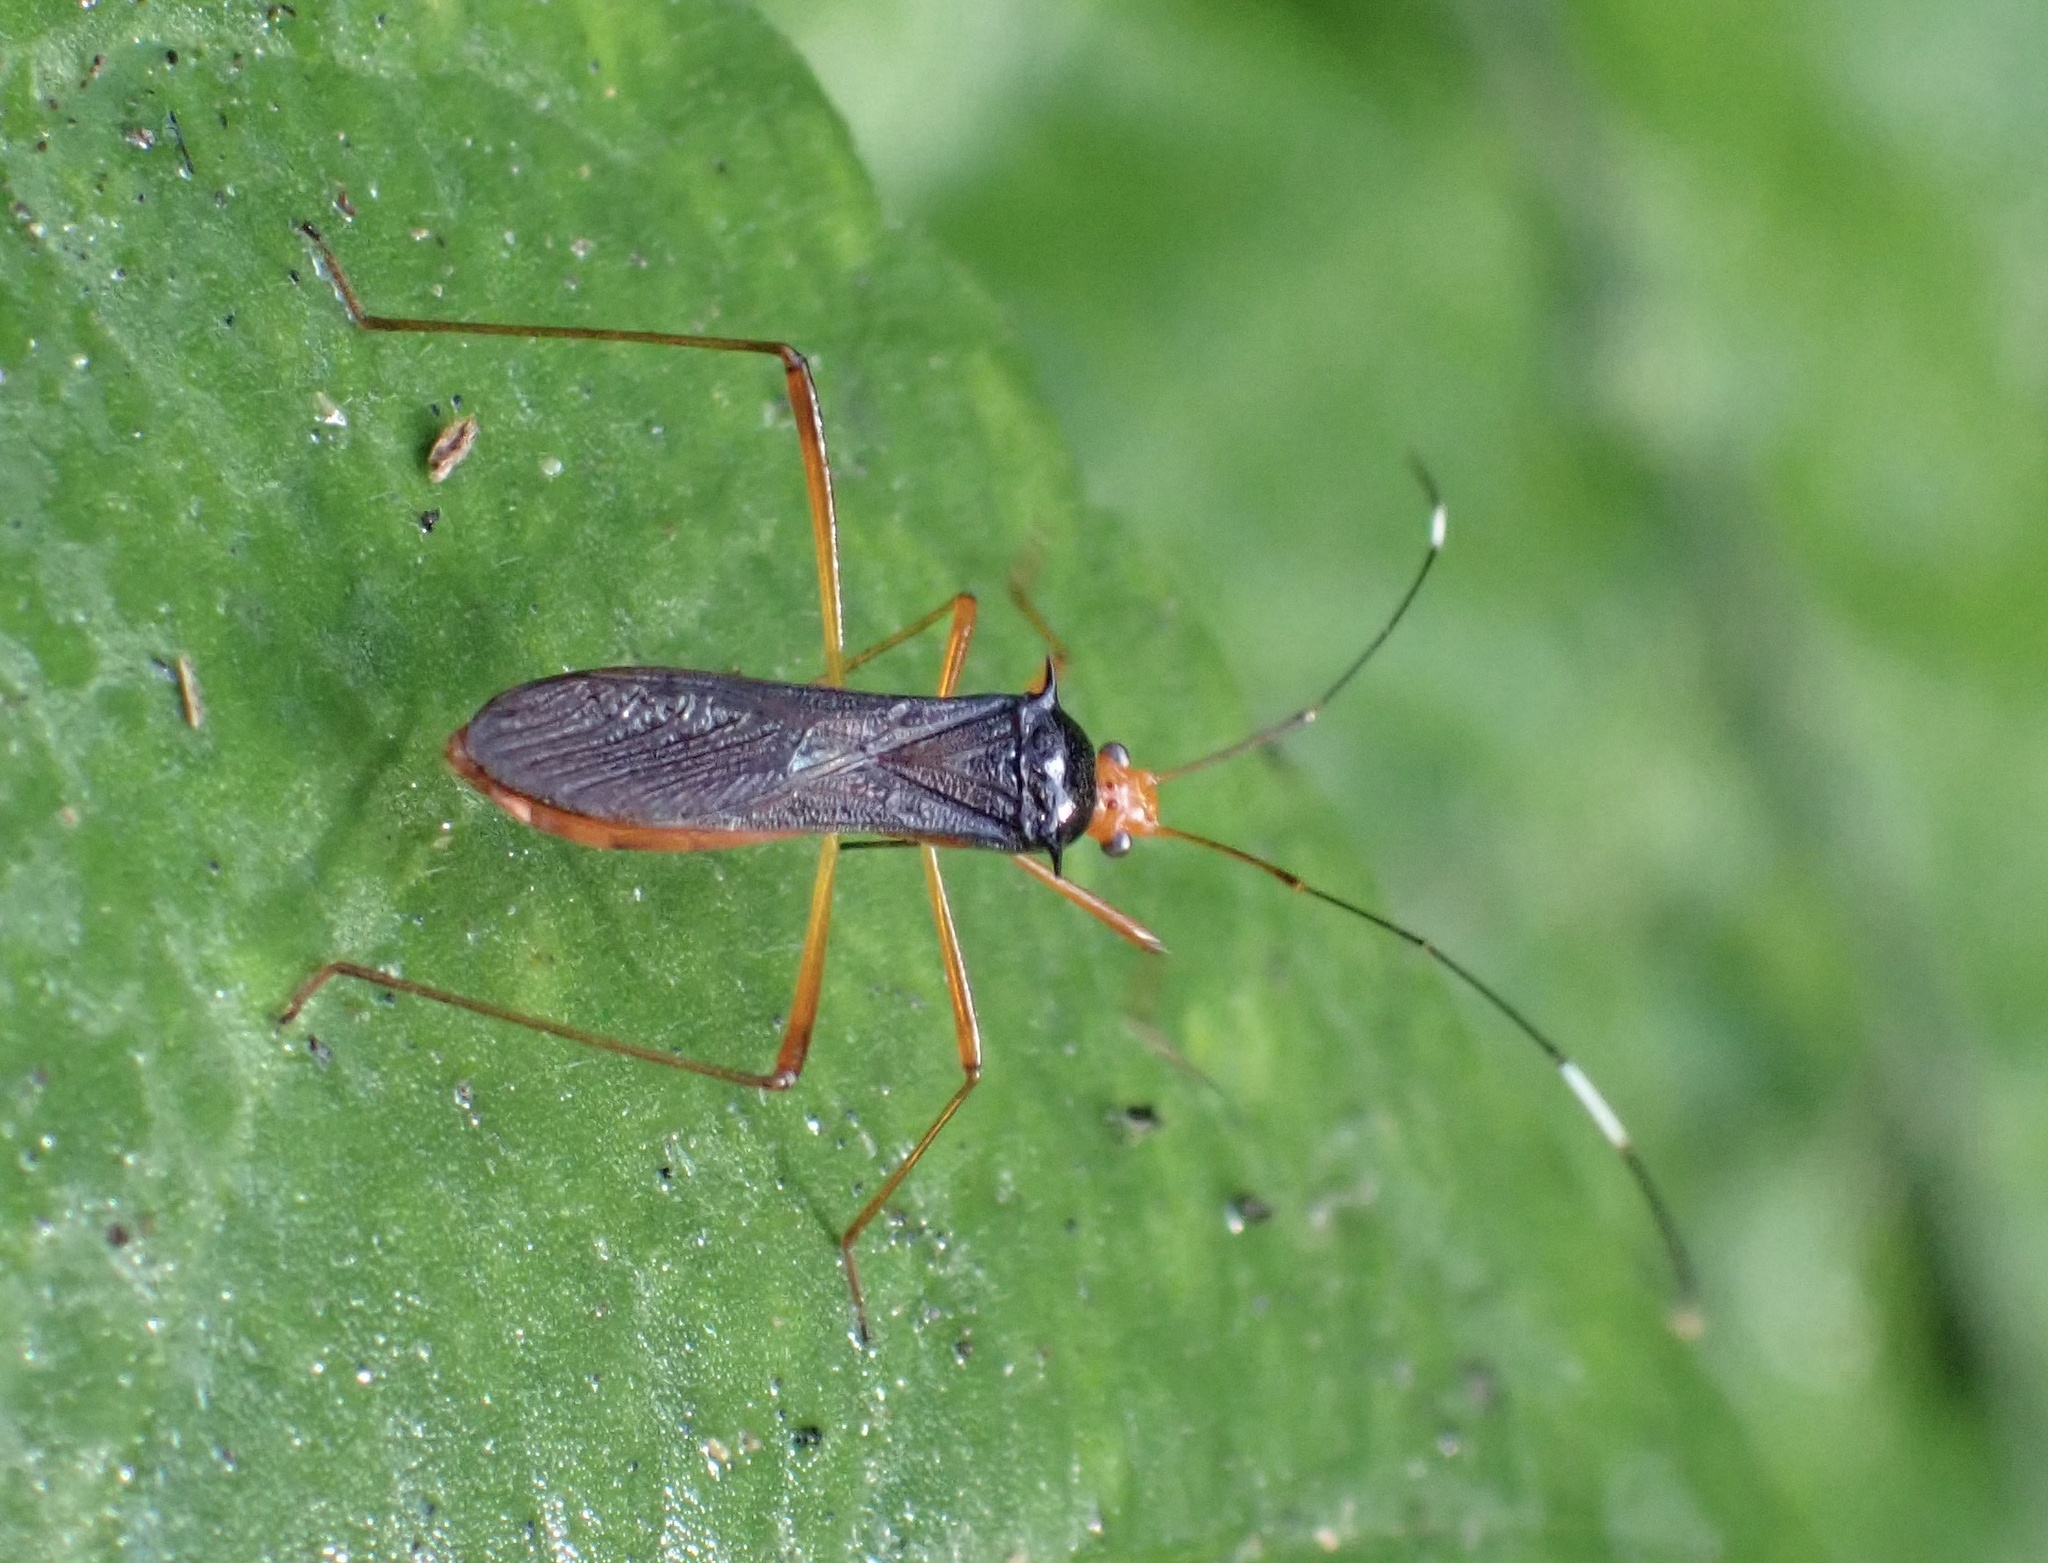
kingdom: Animalia
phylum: Arthropoda
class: Insecta
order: Hemiptera
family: Alydidae
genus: Noliphus
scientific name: Noliphus erythrocephalus
